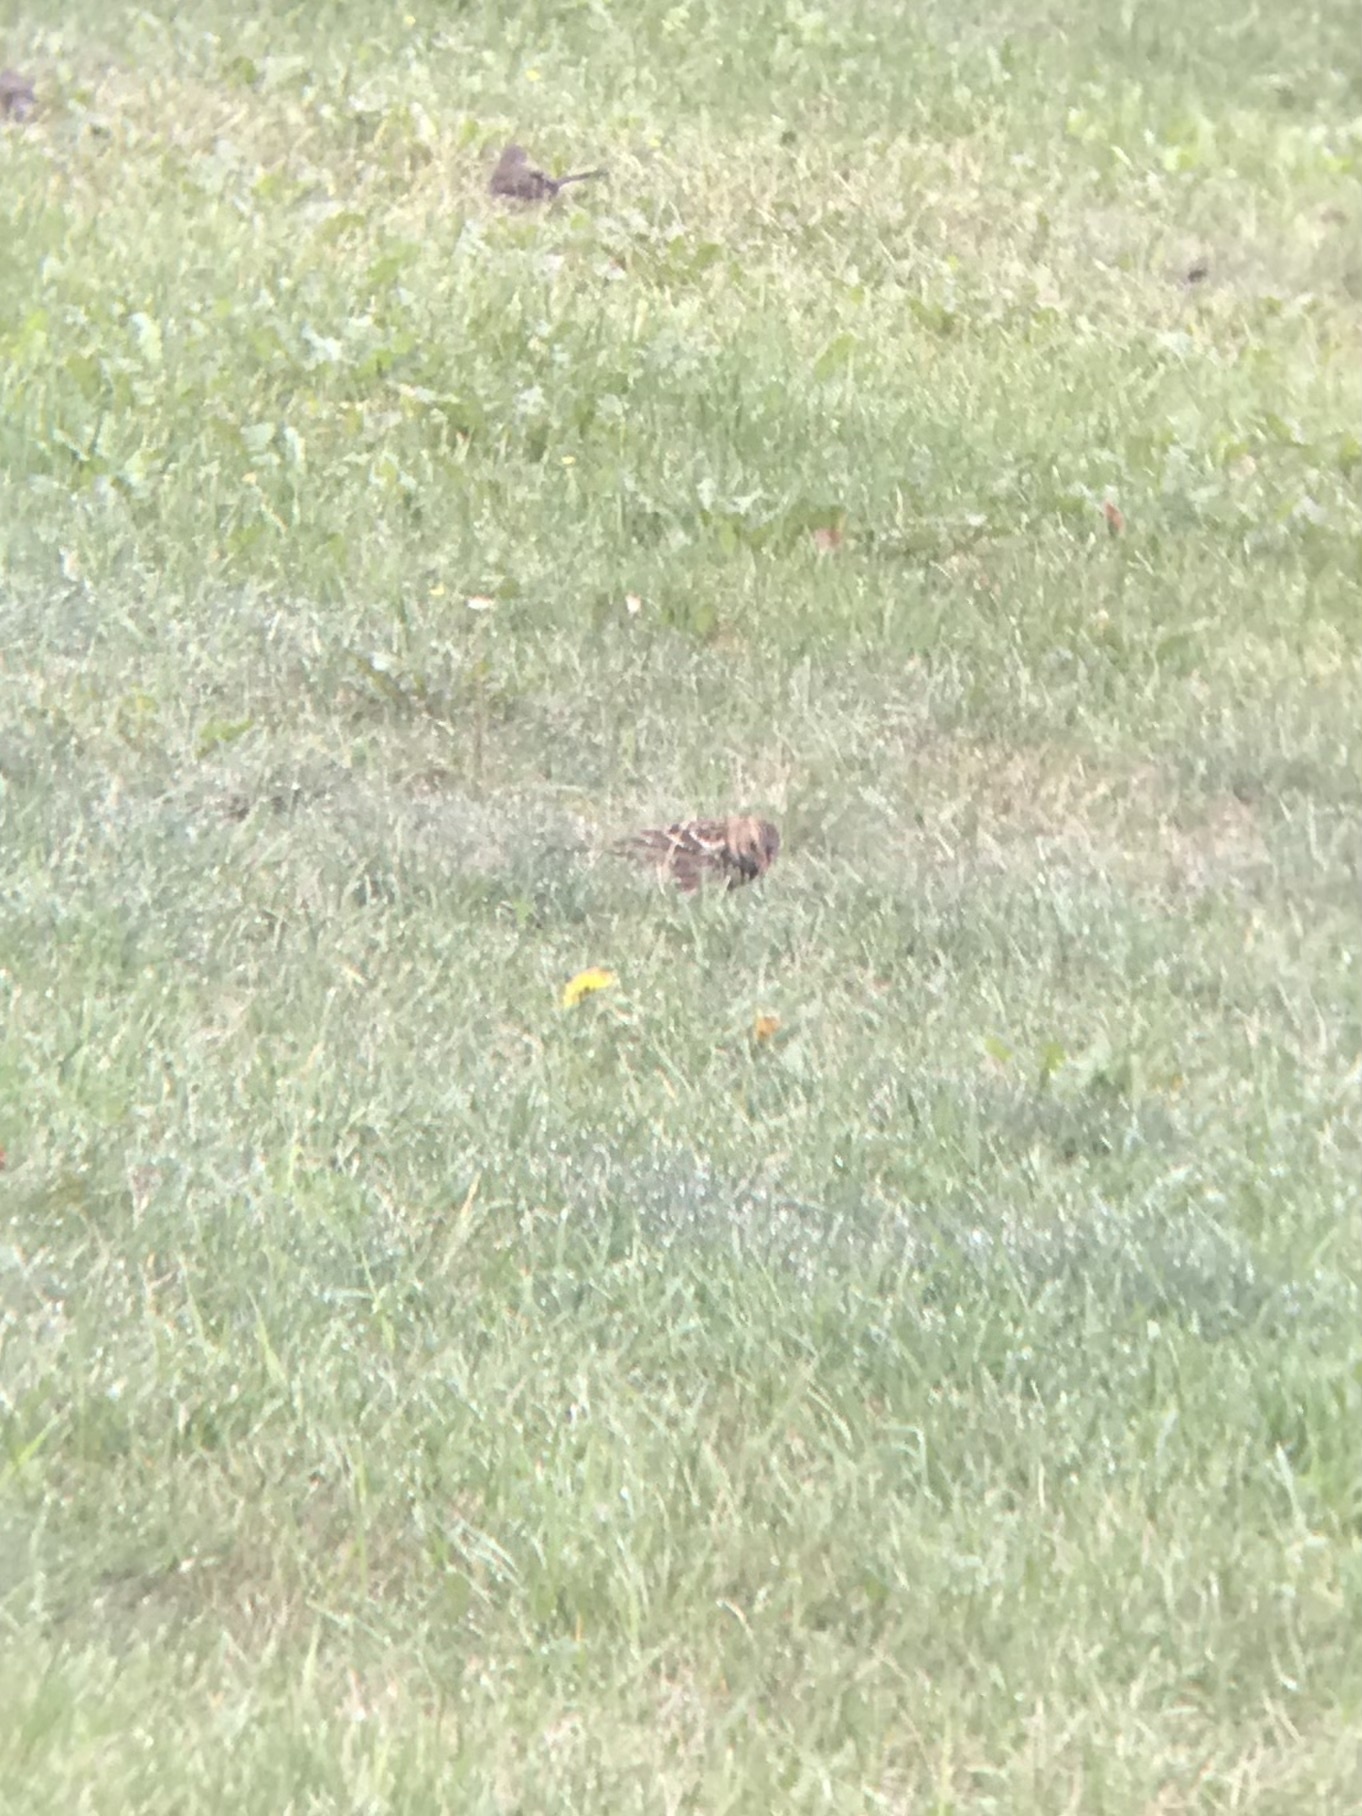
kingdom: Animalia
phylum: Chordata
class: Aves
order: Passeriformes
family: Passerellidae
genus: Zonotrichia
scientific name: Zonotrichia querula
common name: Harris's sparrow
